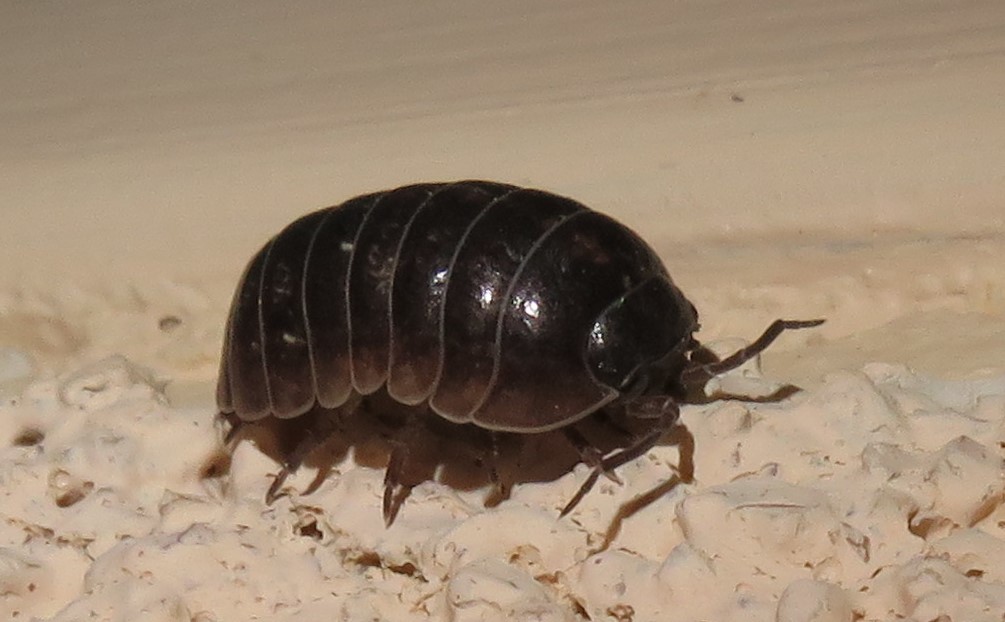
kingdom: Animalia
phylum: Arthropoda
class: Malacostraca
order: Isopoda
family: Armadillidiidae
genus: Armadillidium
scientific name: Armadillidium vulgare
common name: Common pill woodlouse
